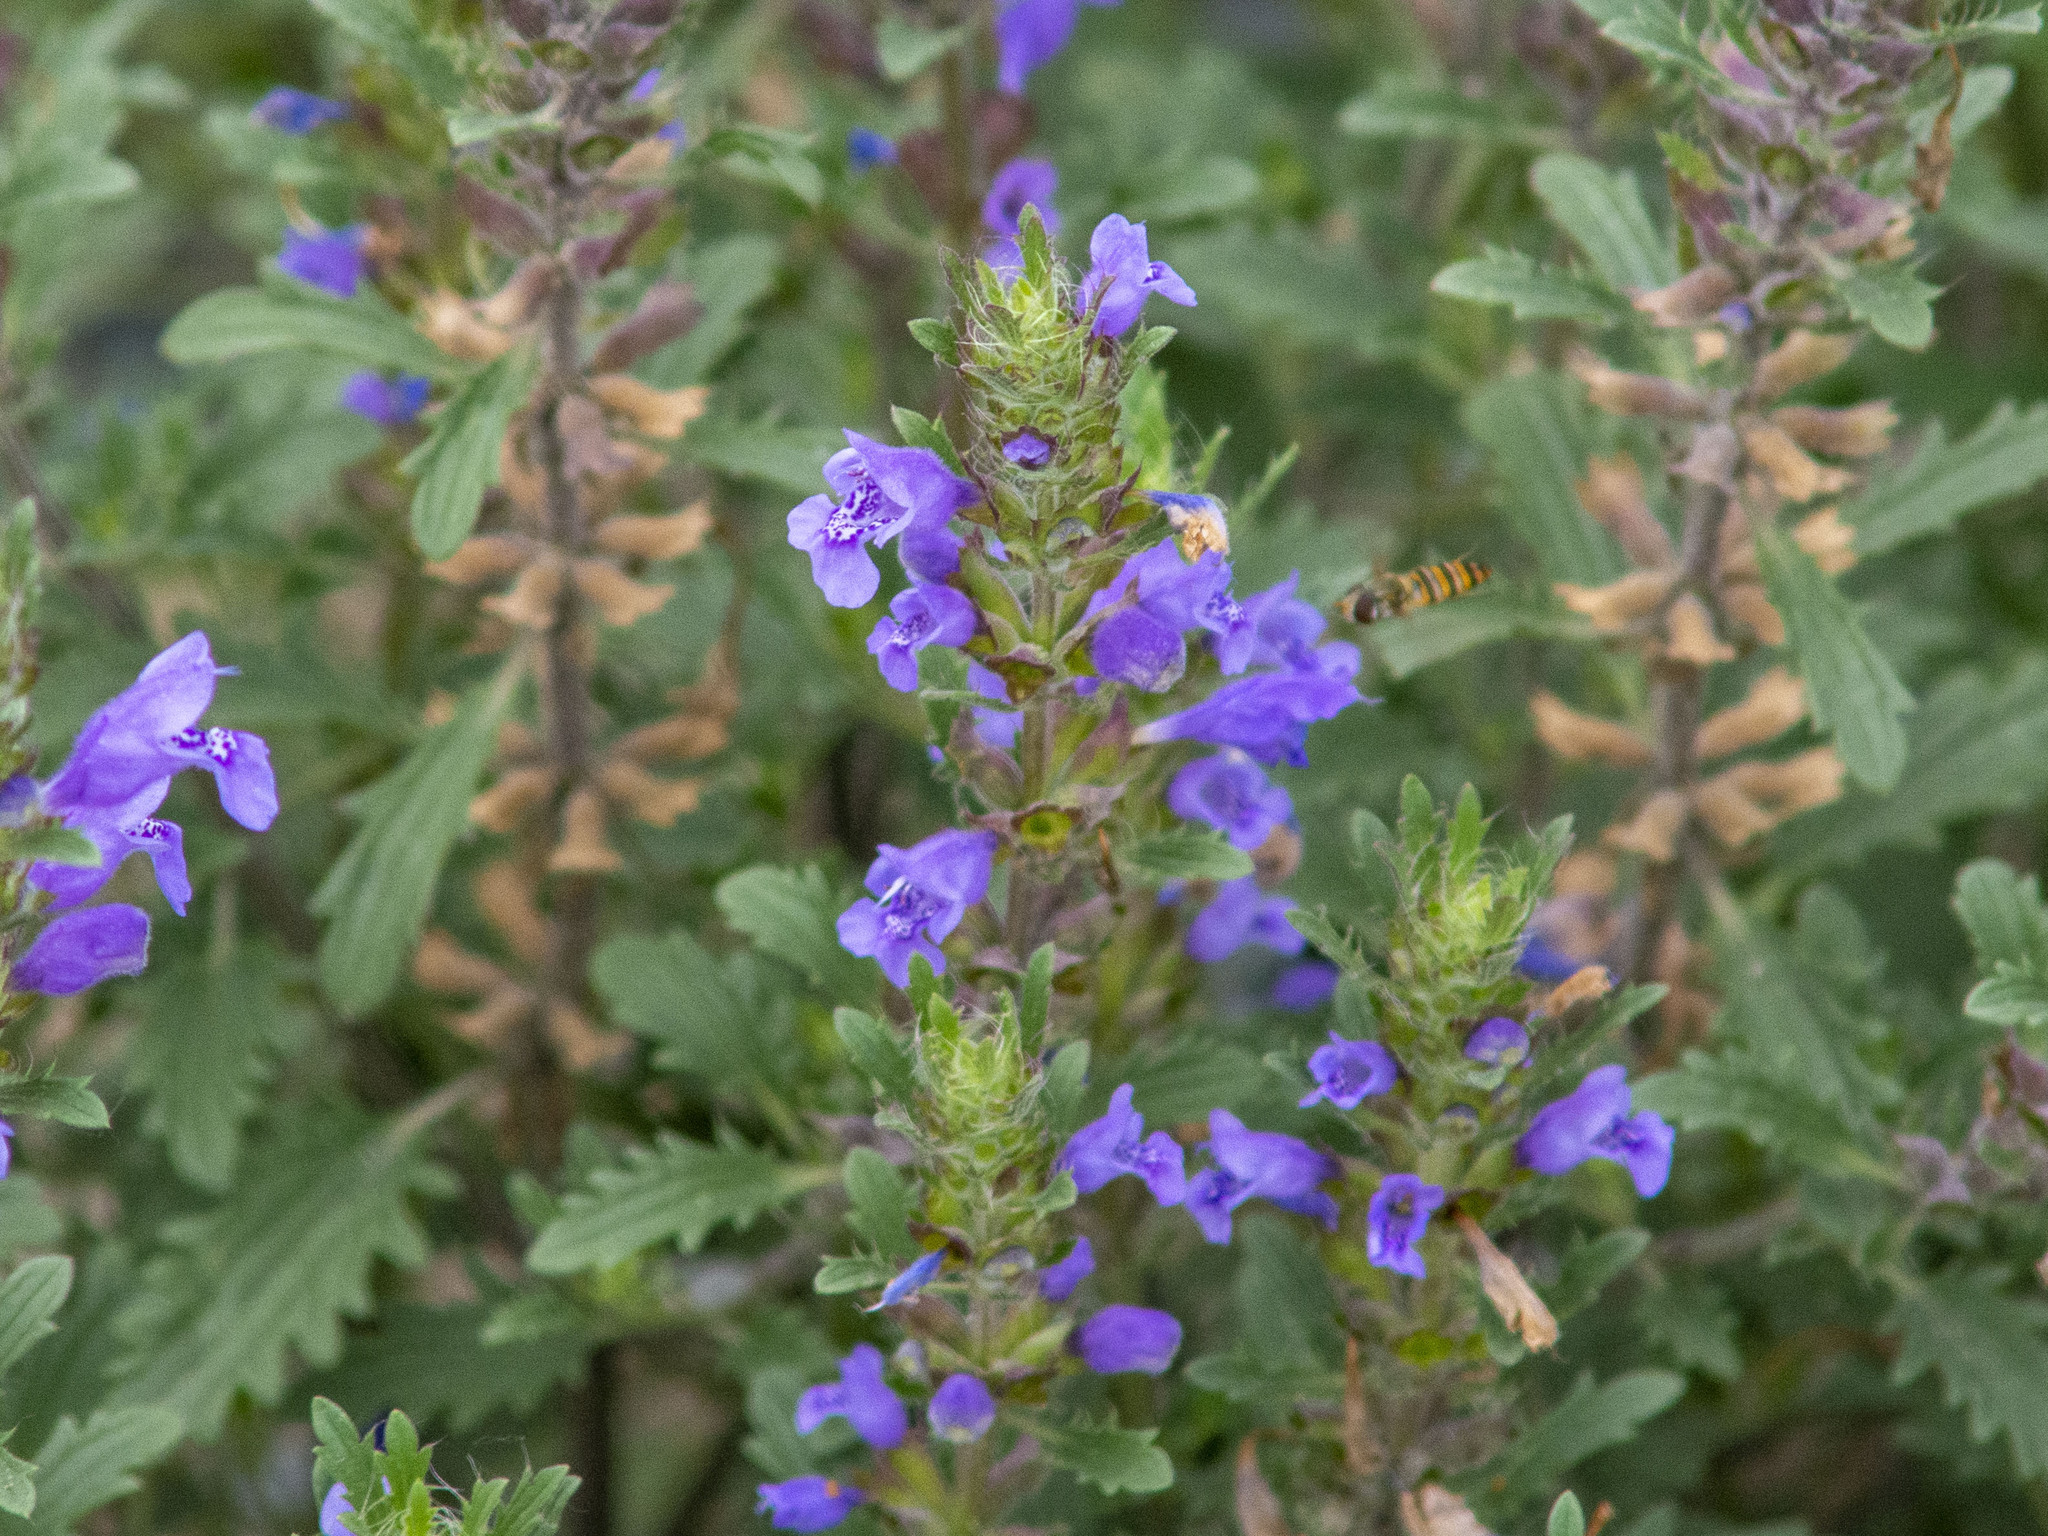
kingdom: Plantae
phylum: Tracheophyta
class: Magnoliopsida
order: Lamiales
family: Lamiaceae
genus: Dracocephalum
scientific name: Dracocephalum foetidum
